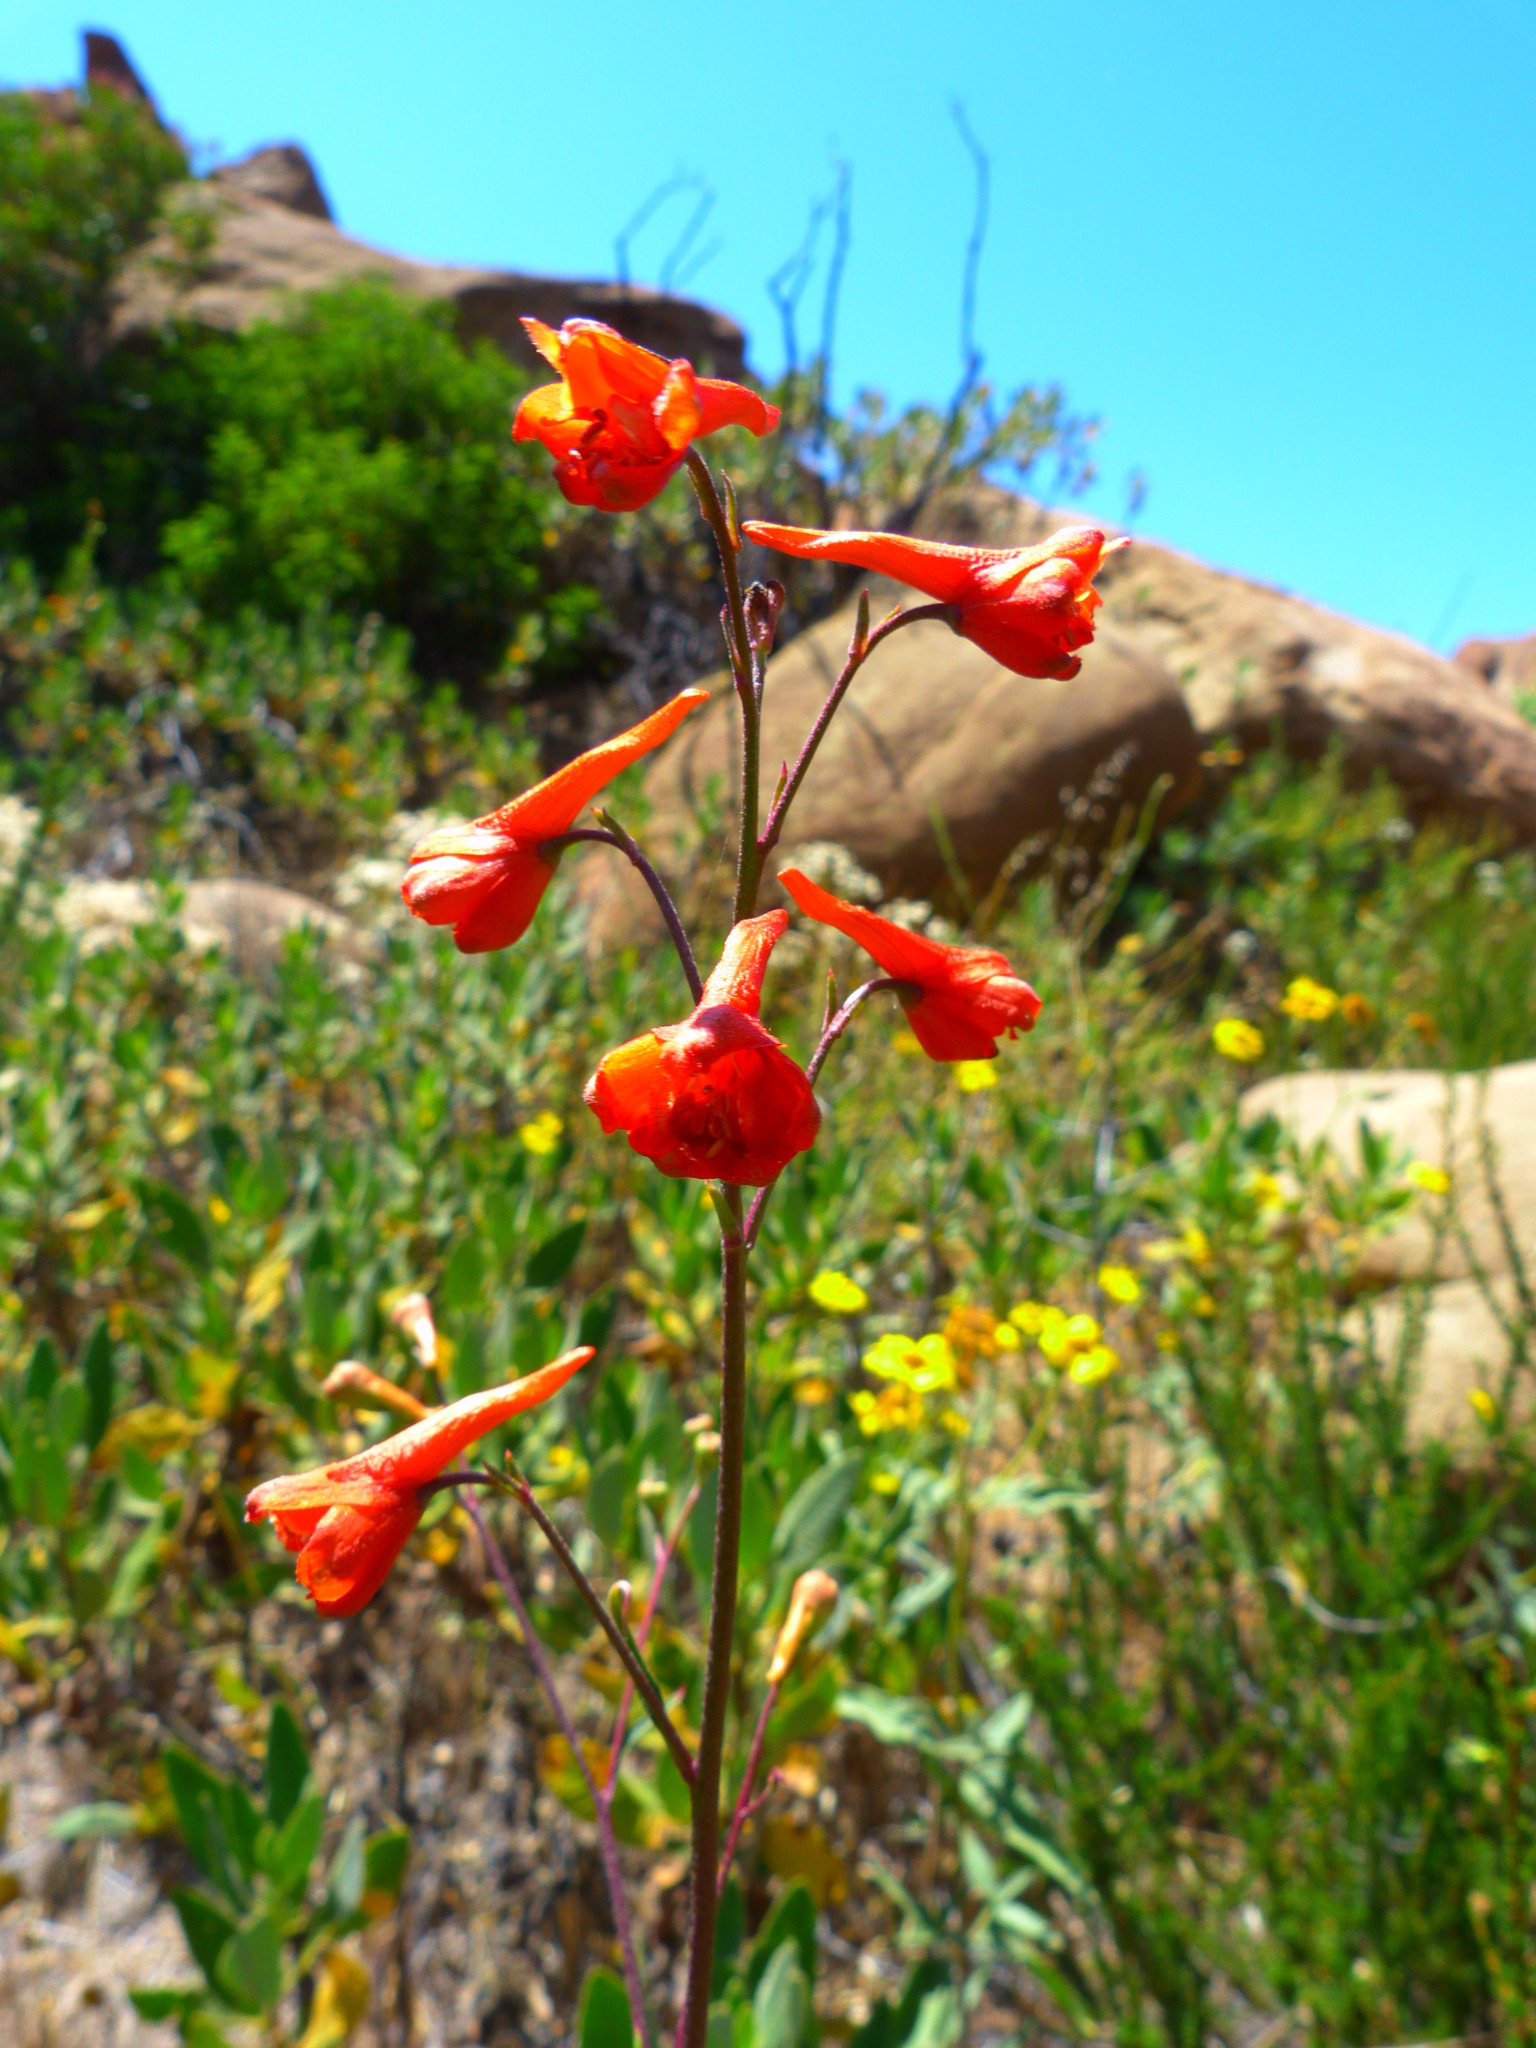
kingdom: Plantae
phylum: Tracheophyta
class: Magnoliopsida
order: Ranunculales
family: Ranunculaceae
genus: Delphinium
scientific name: Delphinium cardinale
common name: Scarlet larkspur
